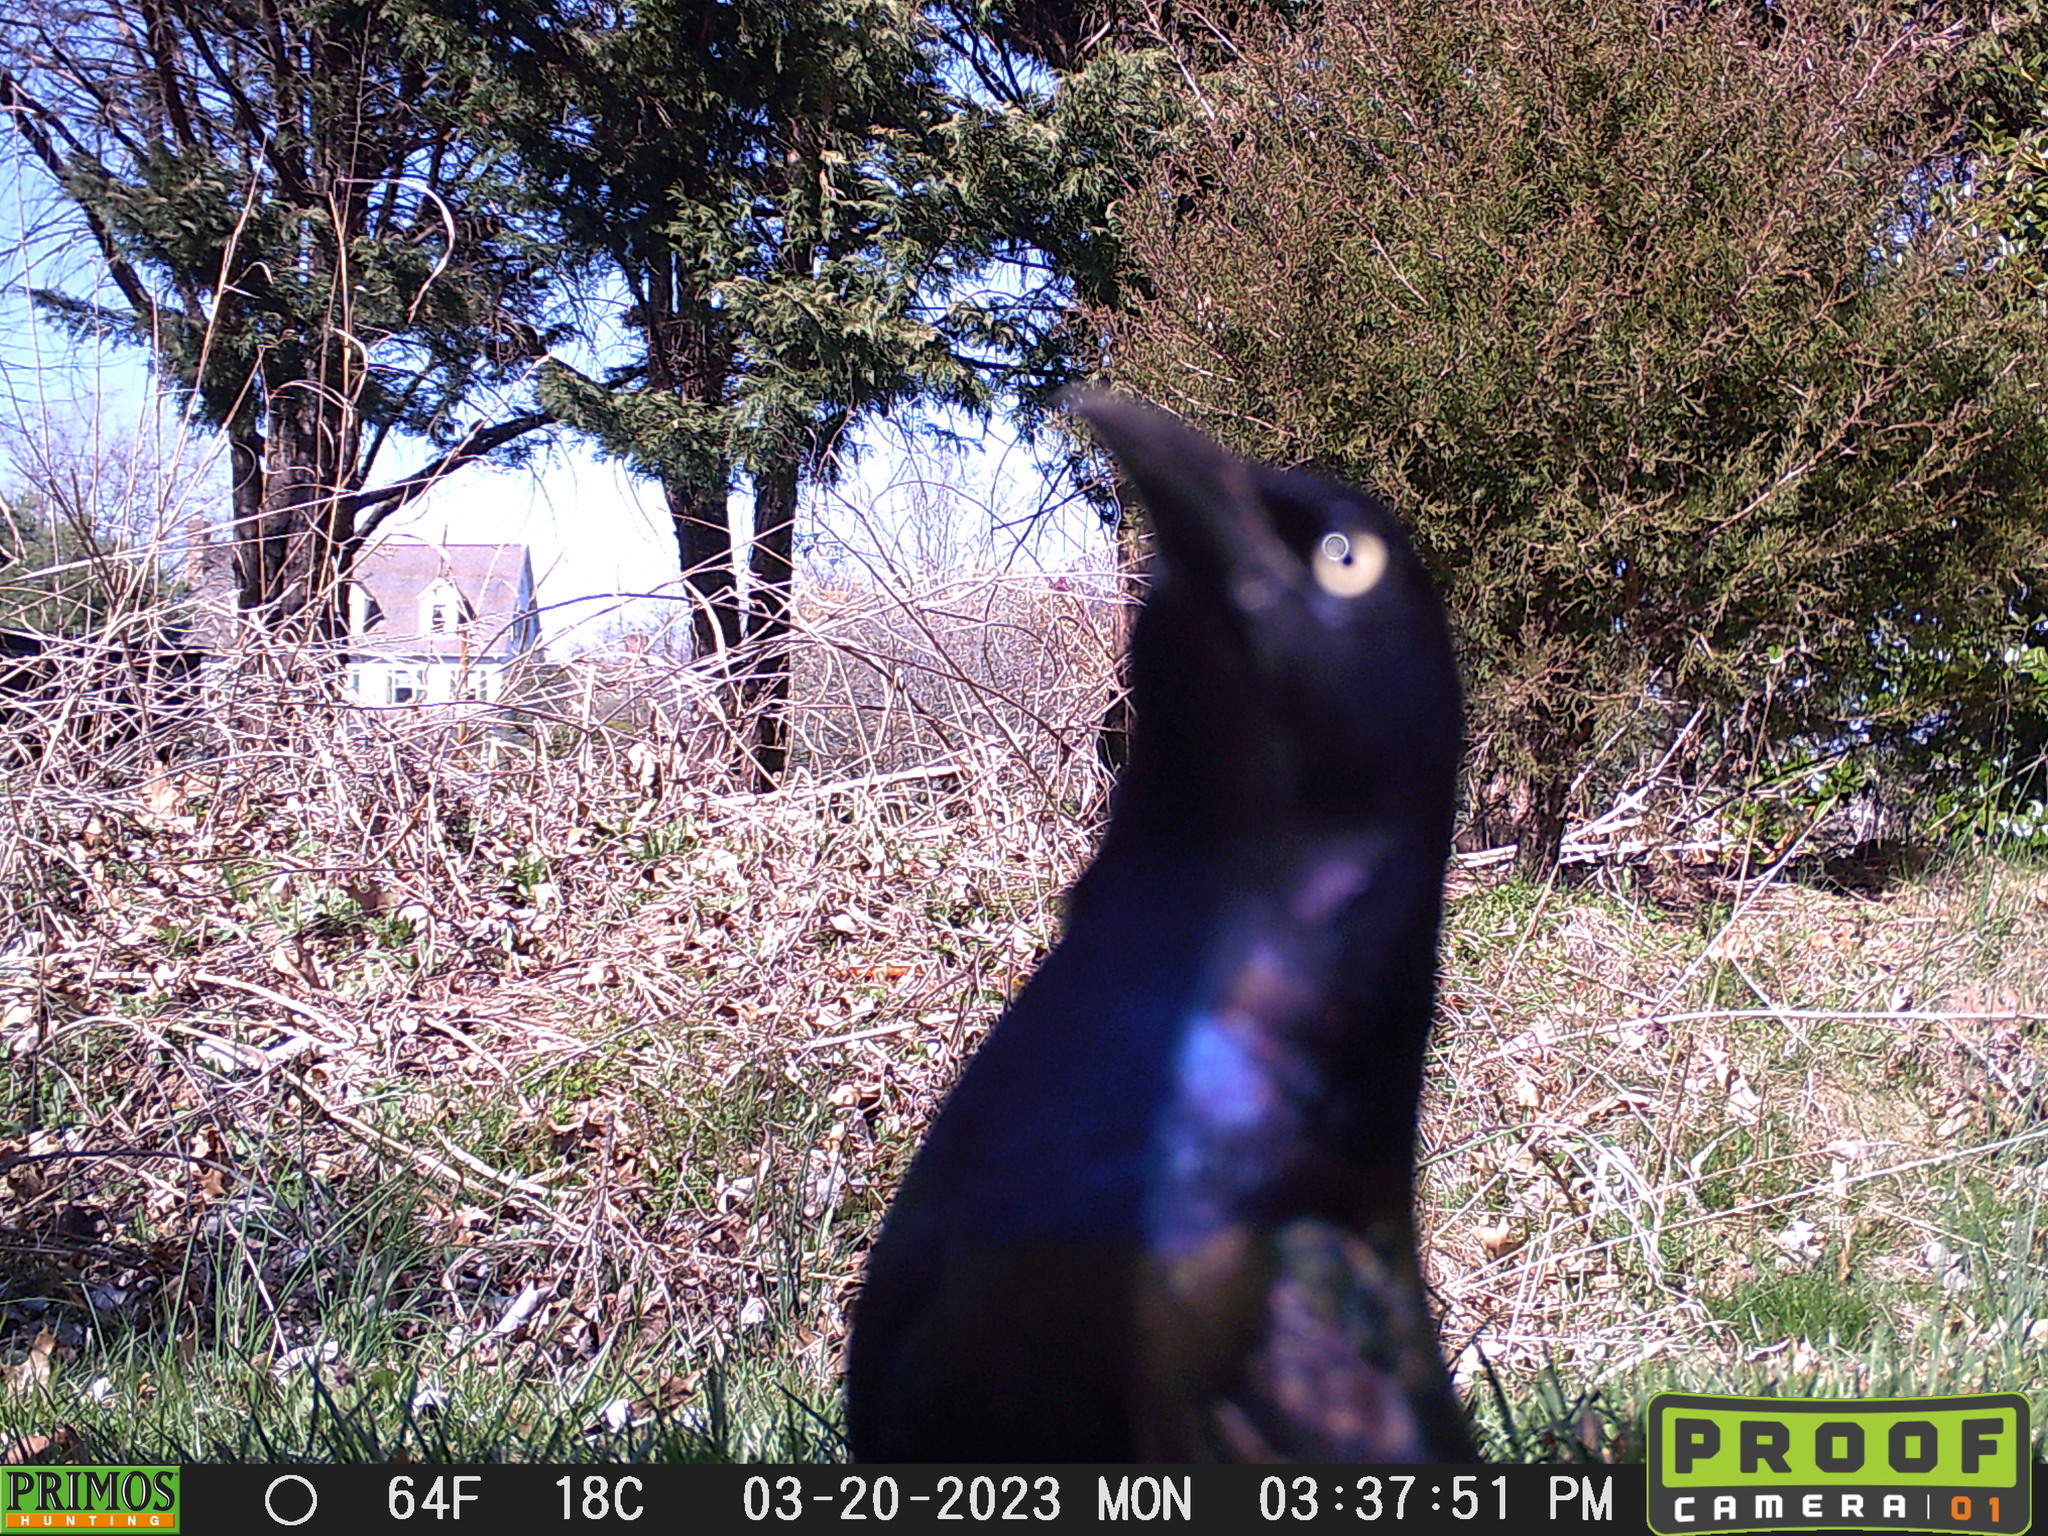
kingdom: Animalia
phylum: Chordata
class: Aves
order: Passeriformes
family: Icteridae
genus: Quiscalus
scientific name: Quiscalus quiscula
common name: Common grackle
